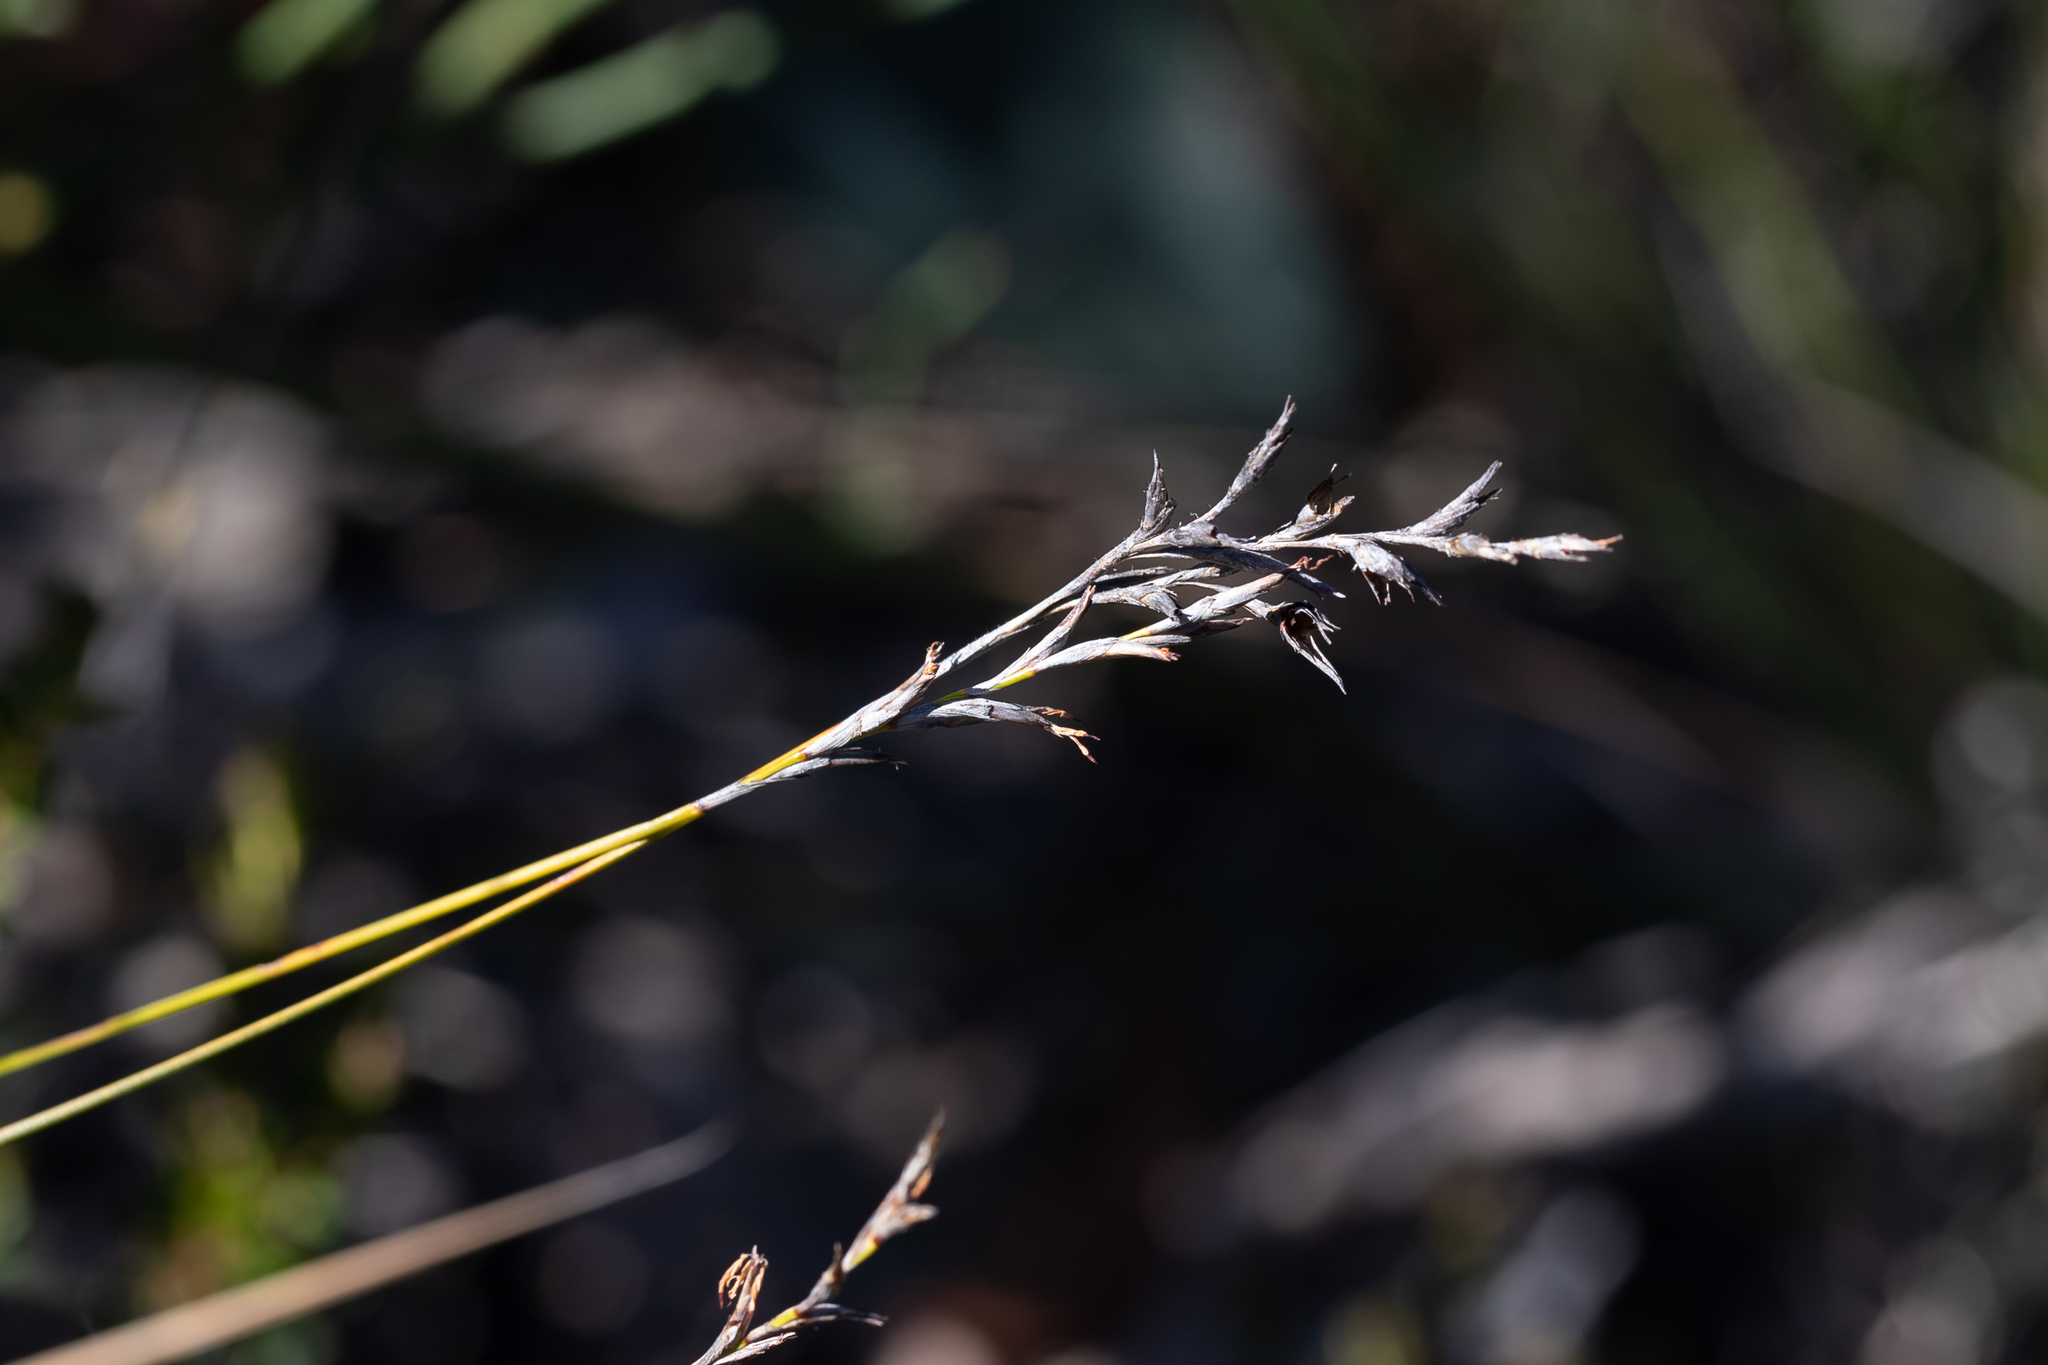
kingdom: Plantae
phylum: Tracheophyta
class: Liliopsida
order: Poales
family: Cyperaceae
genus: Lepidosperma
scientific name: Lepidosperma semiteres
